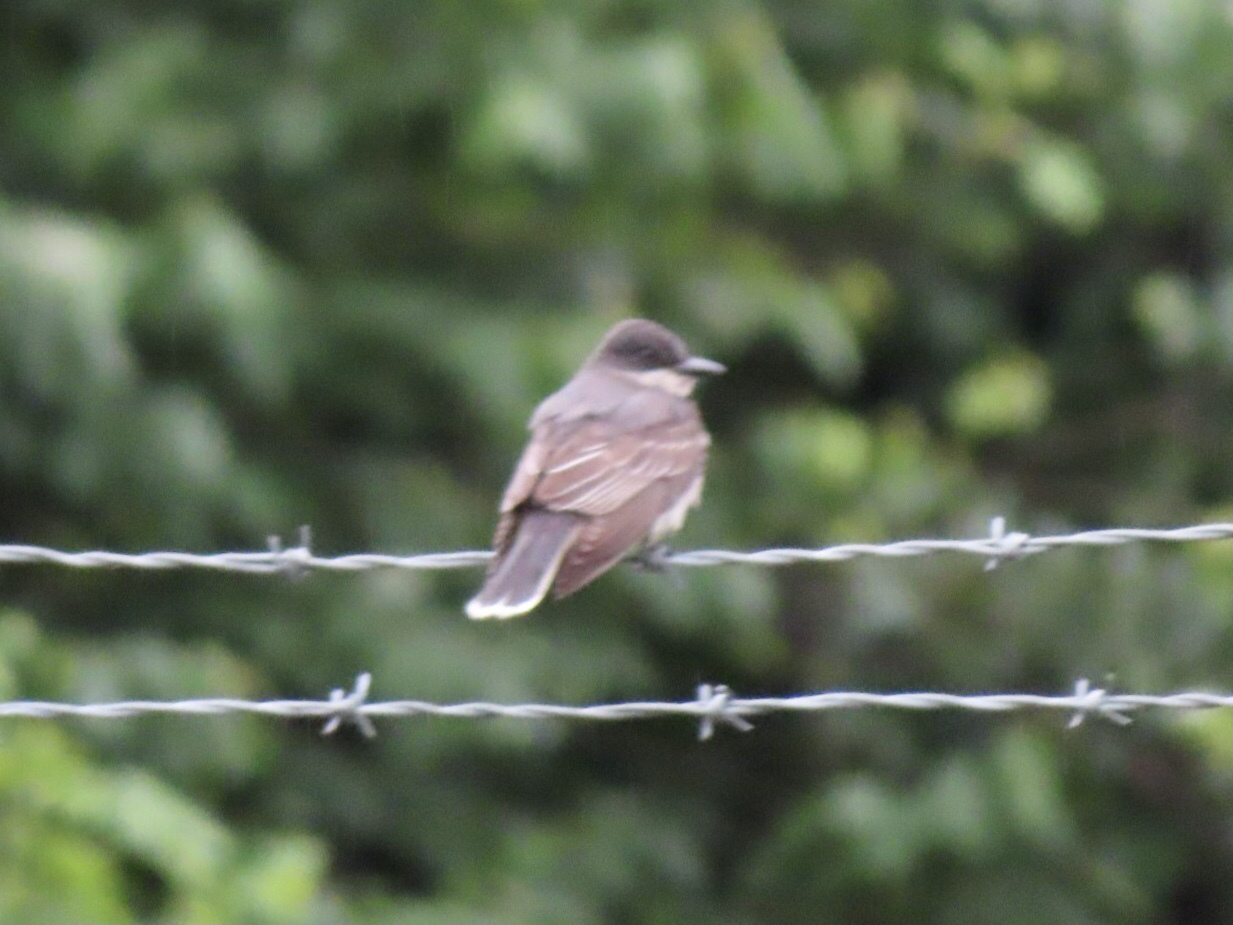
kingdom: Animalia
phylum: Chordata
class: Aves
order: Passeriformes
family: Tyrannidae
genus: Tyrannus
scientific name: Tyrannus tyrannus
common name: Eastern kingbird
